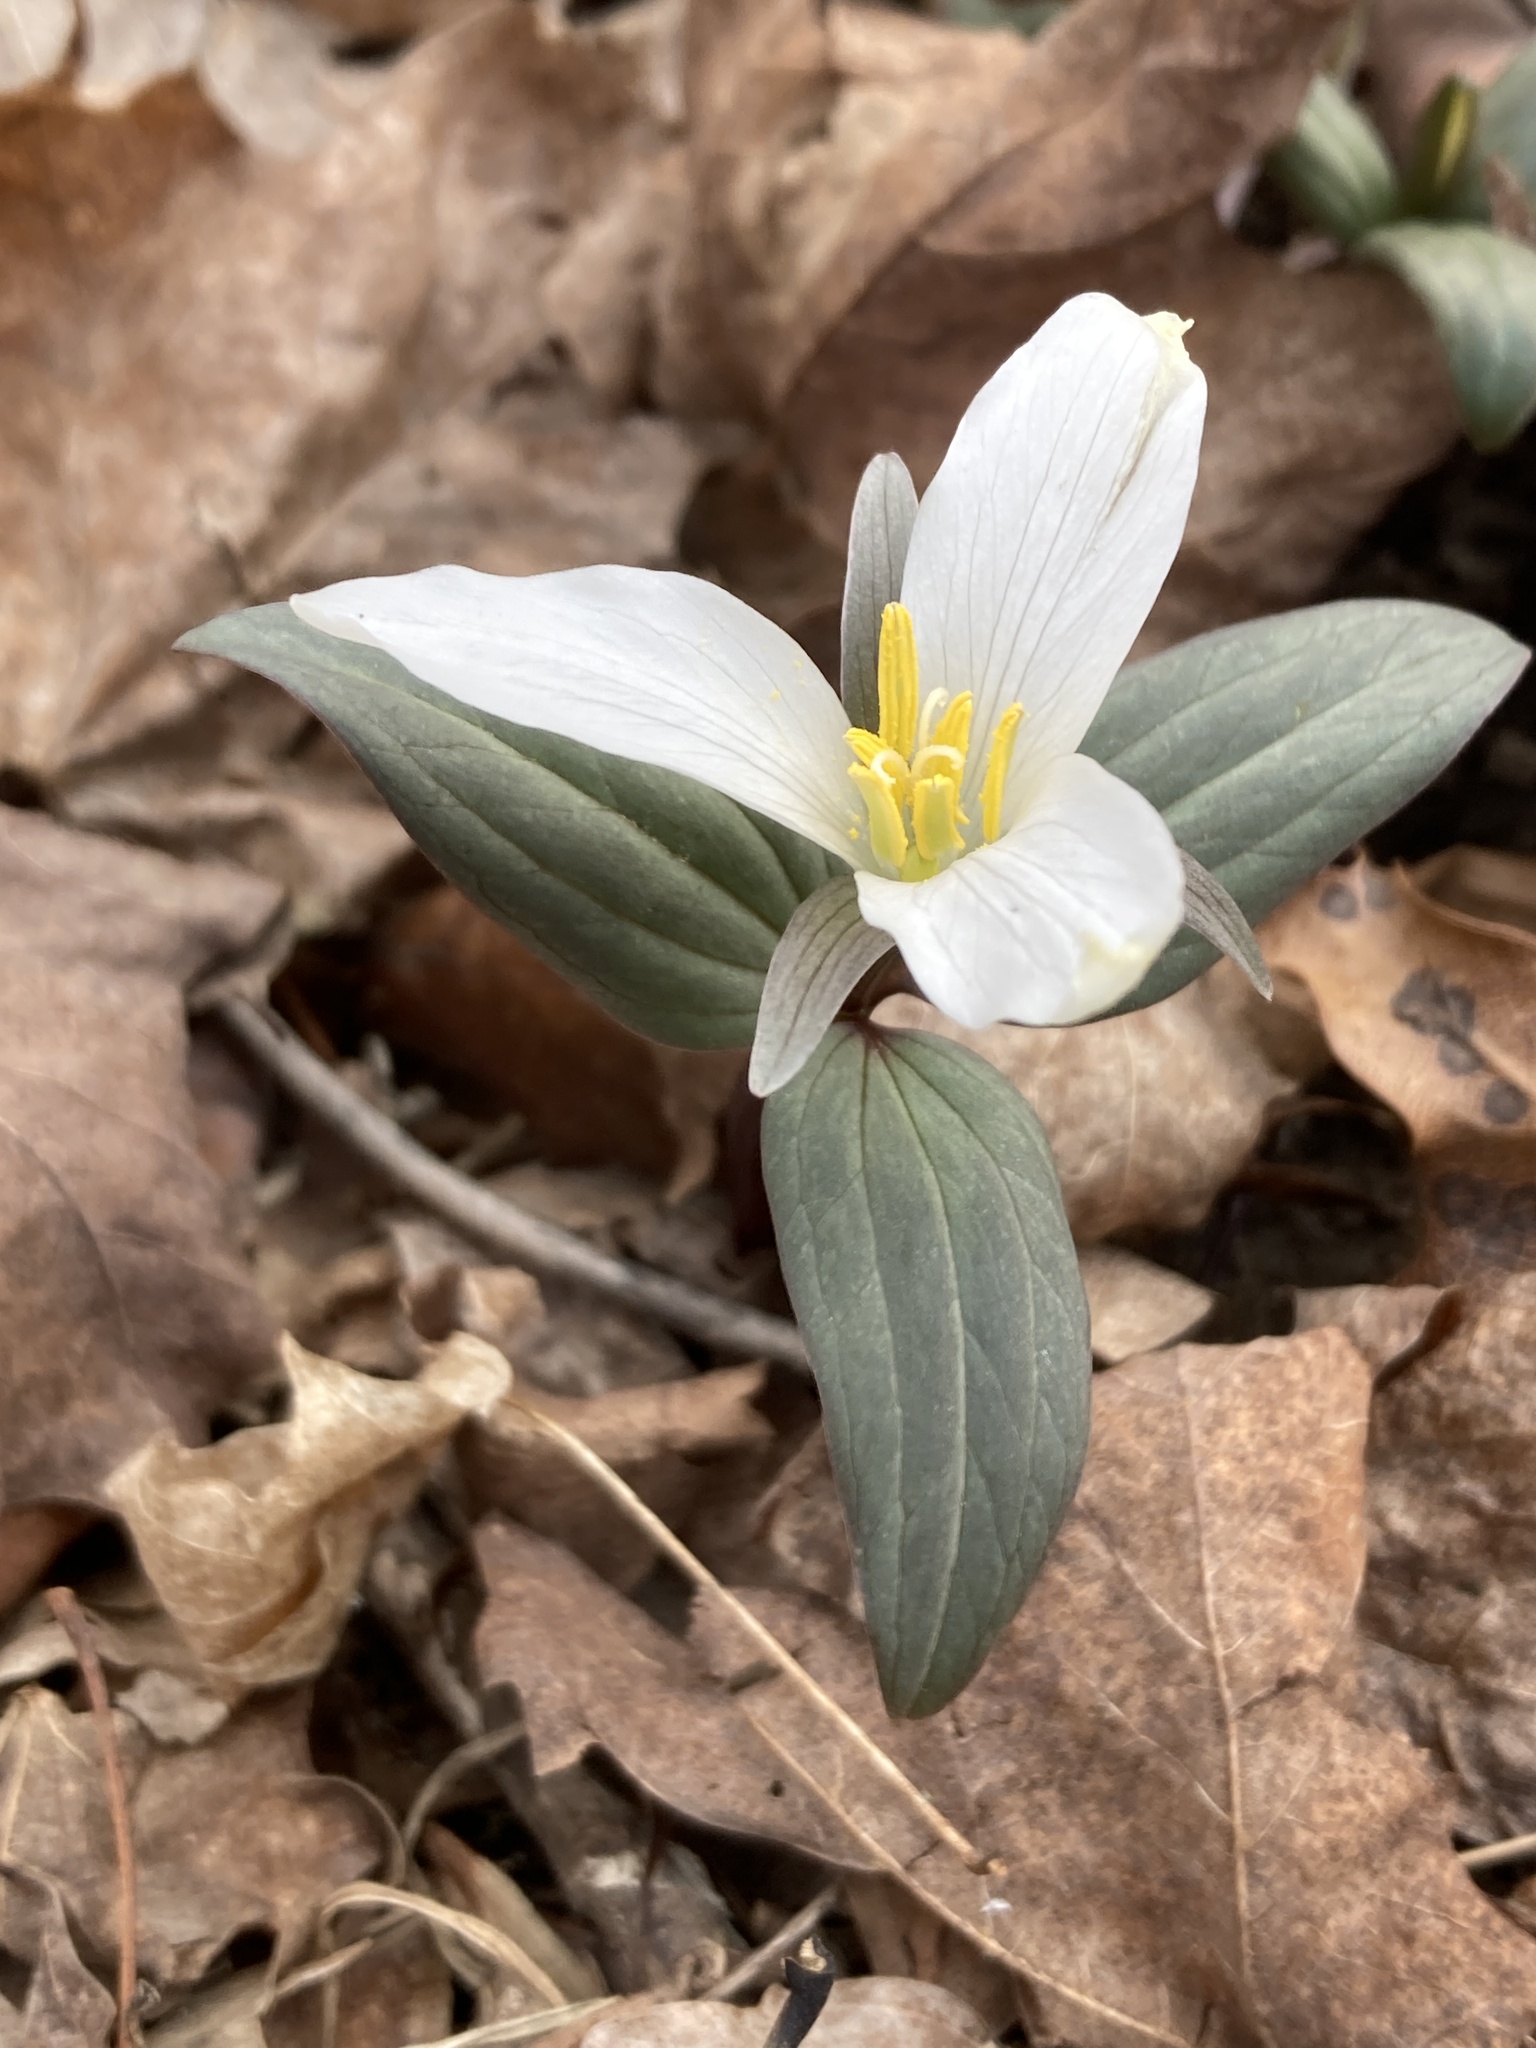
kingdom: Plantae
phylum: Tracheophyta
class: Liliopsida
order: Liliales
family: Melanthiaceae
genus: Trillium
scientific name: Trillium nivale
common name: Dwarf white trillium
